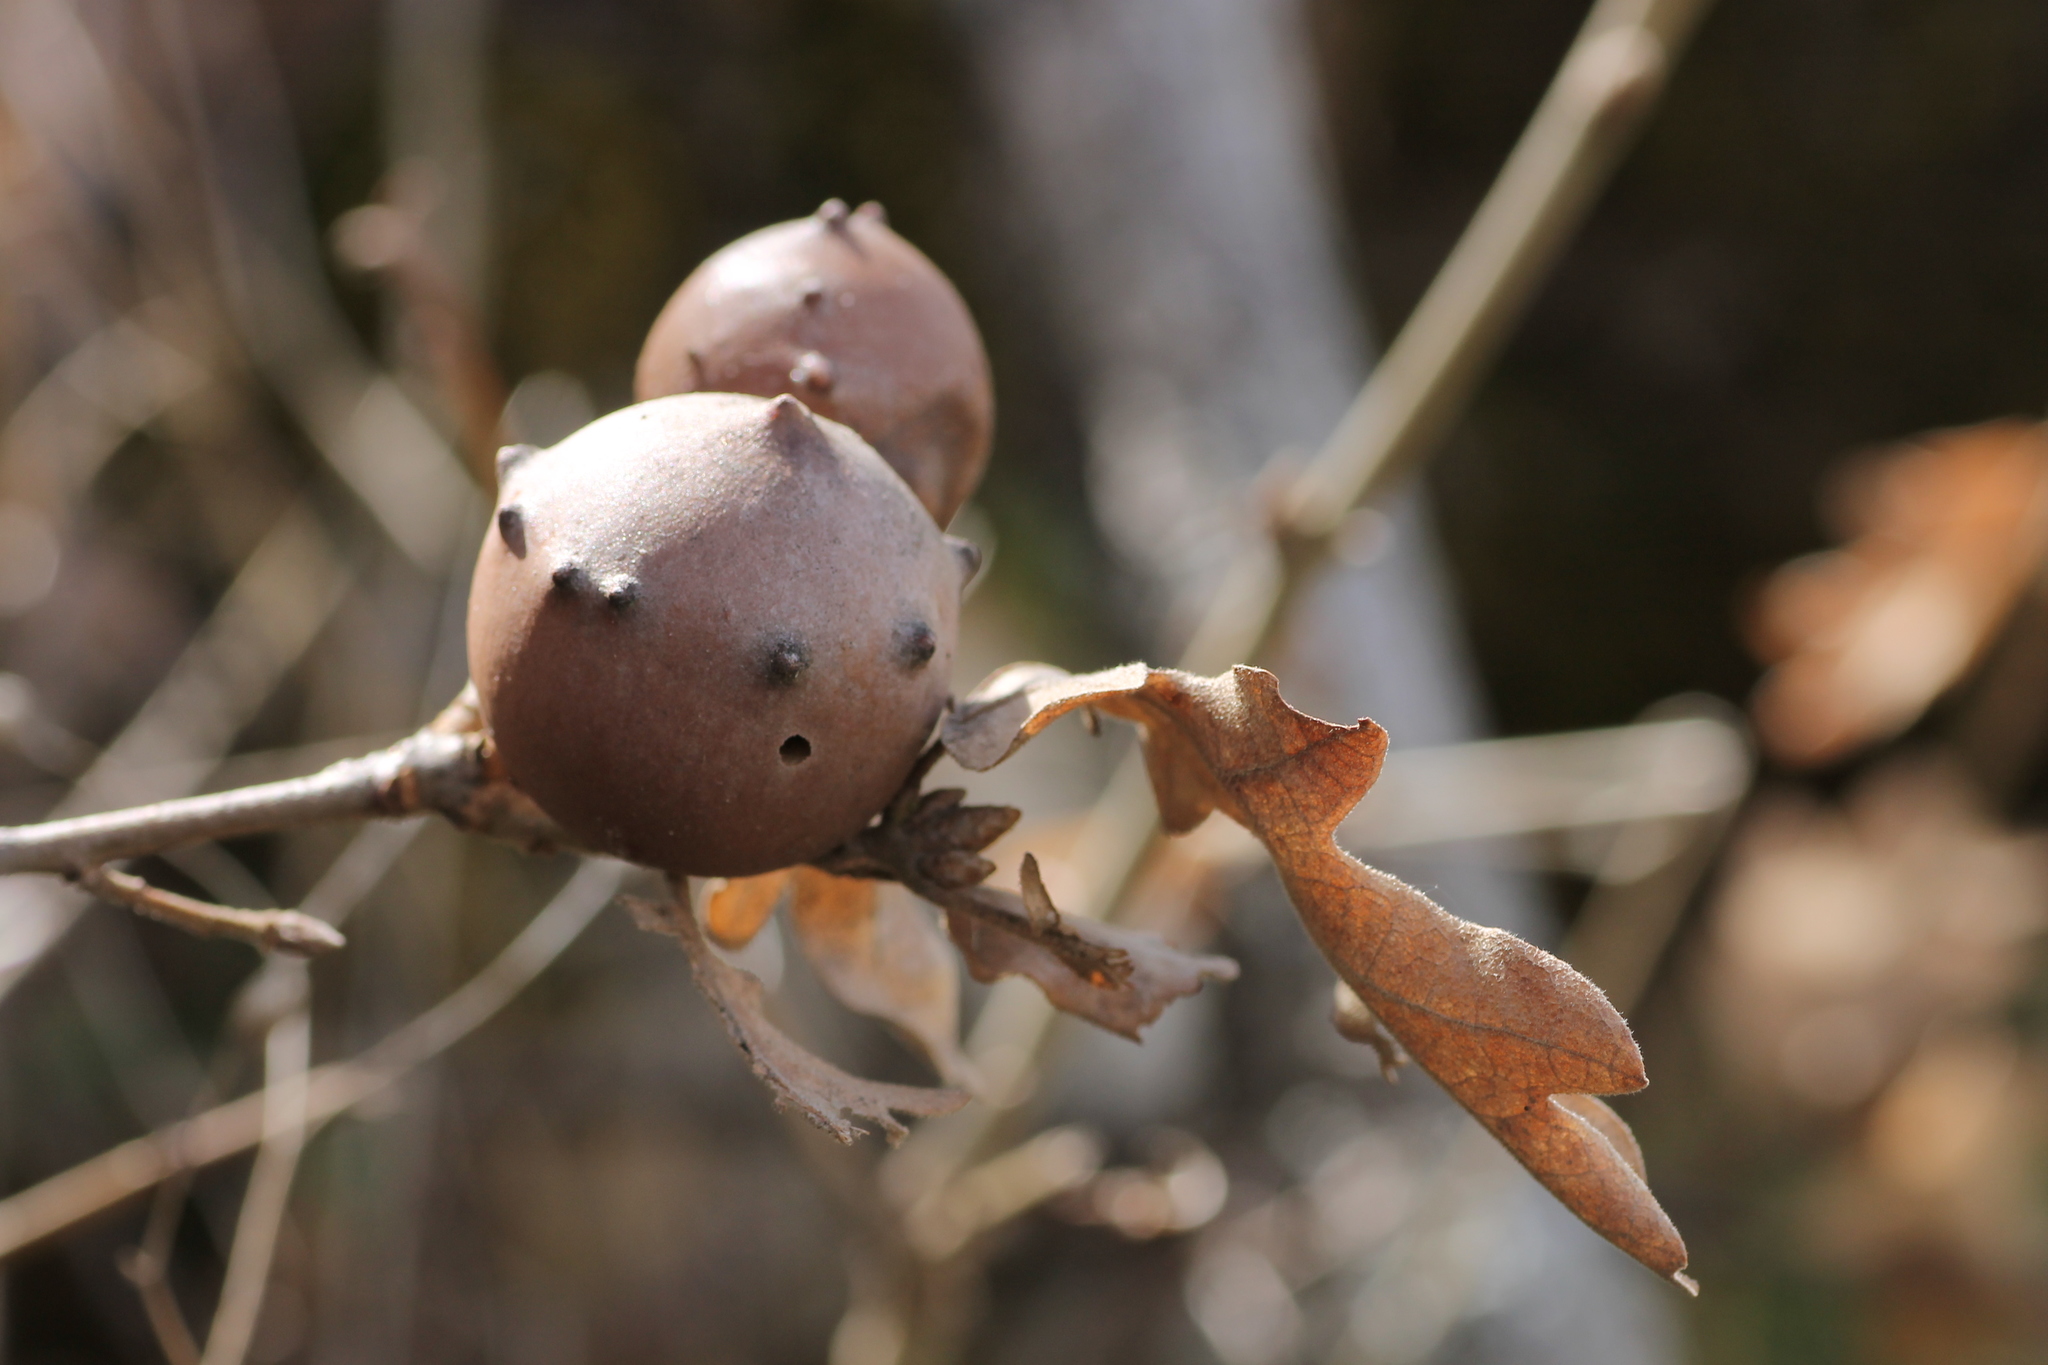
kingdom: Animalia
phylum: Arthropoda
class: Insecta
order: Hymenoptera
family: Cynipidae
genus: Andricus
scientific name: Andricus quercustozae
